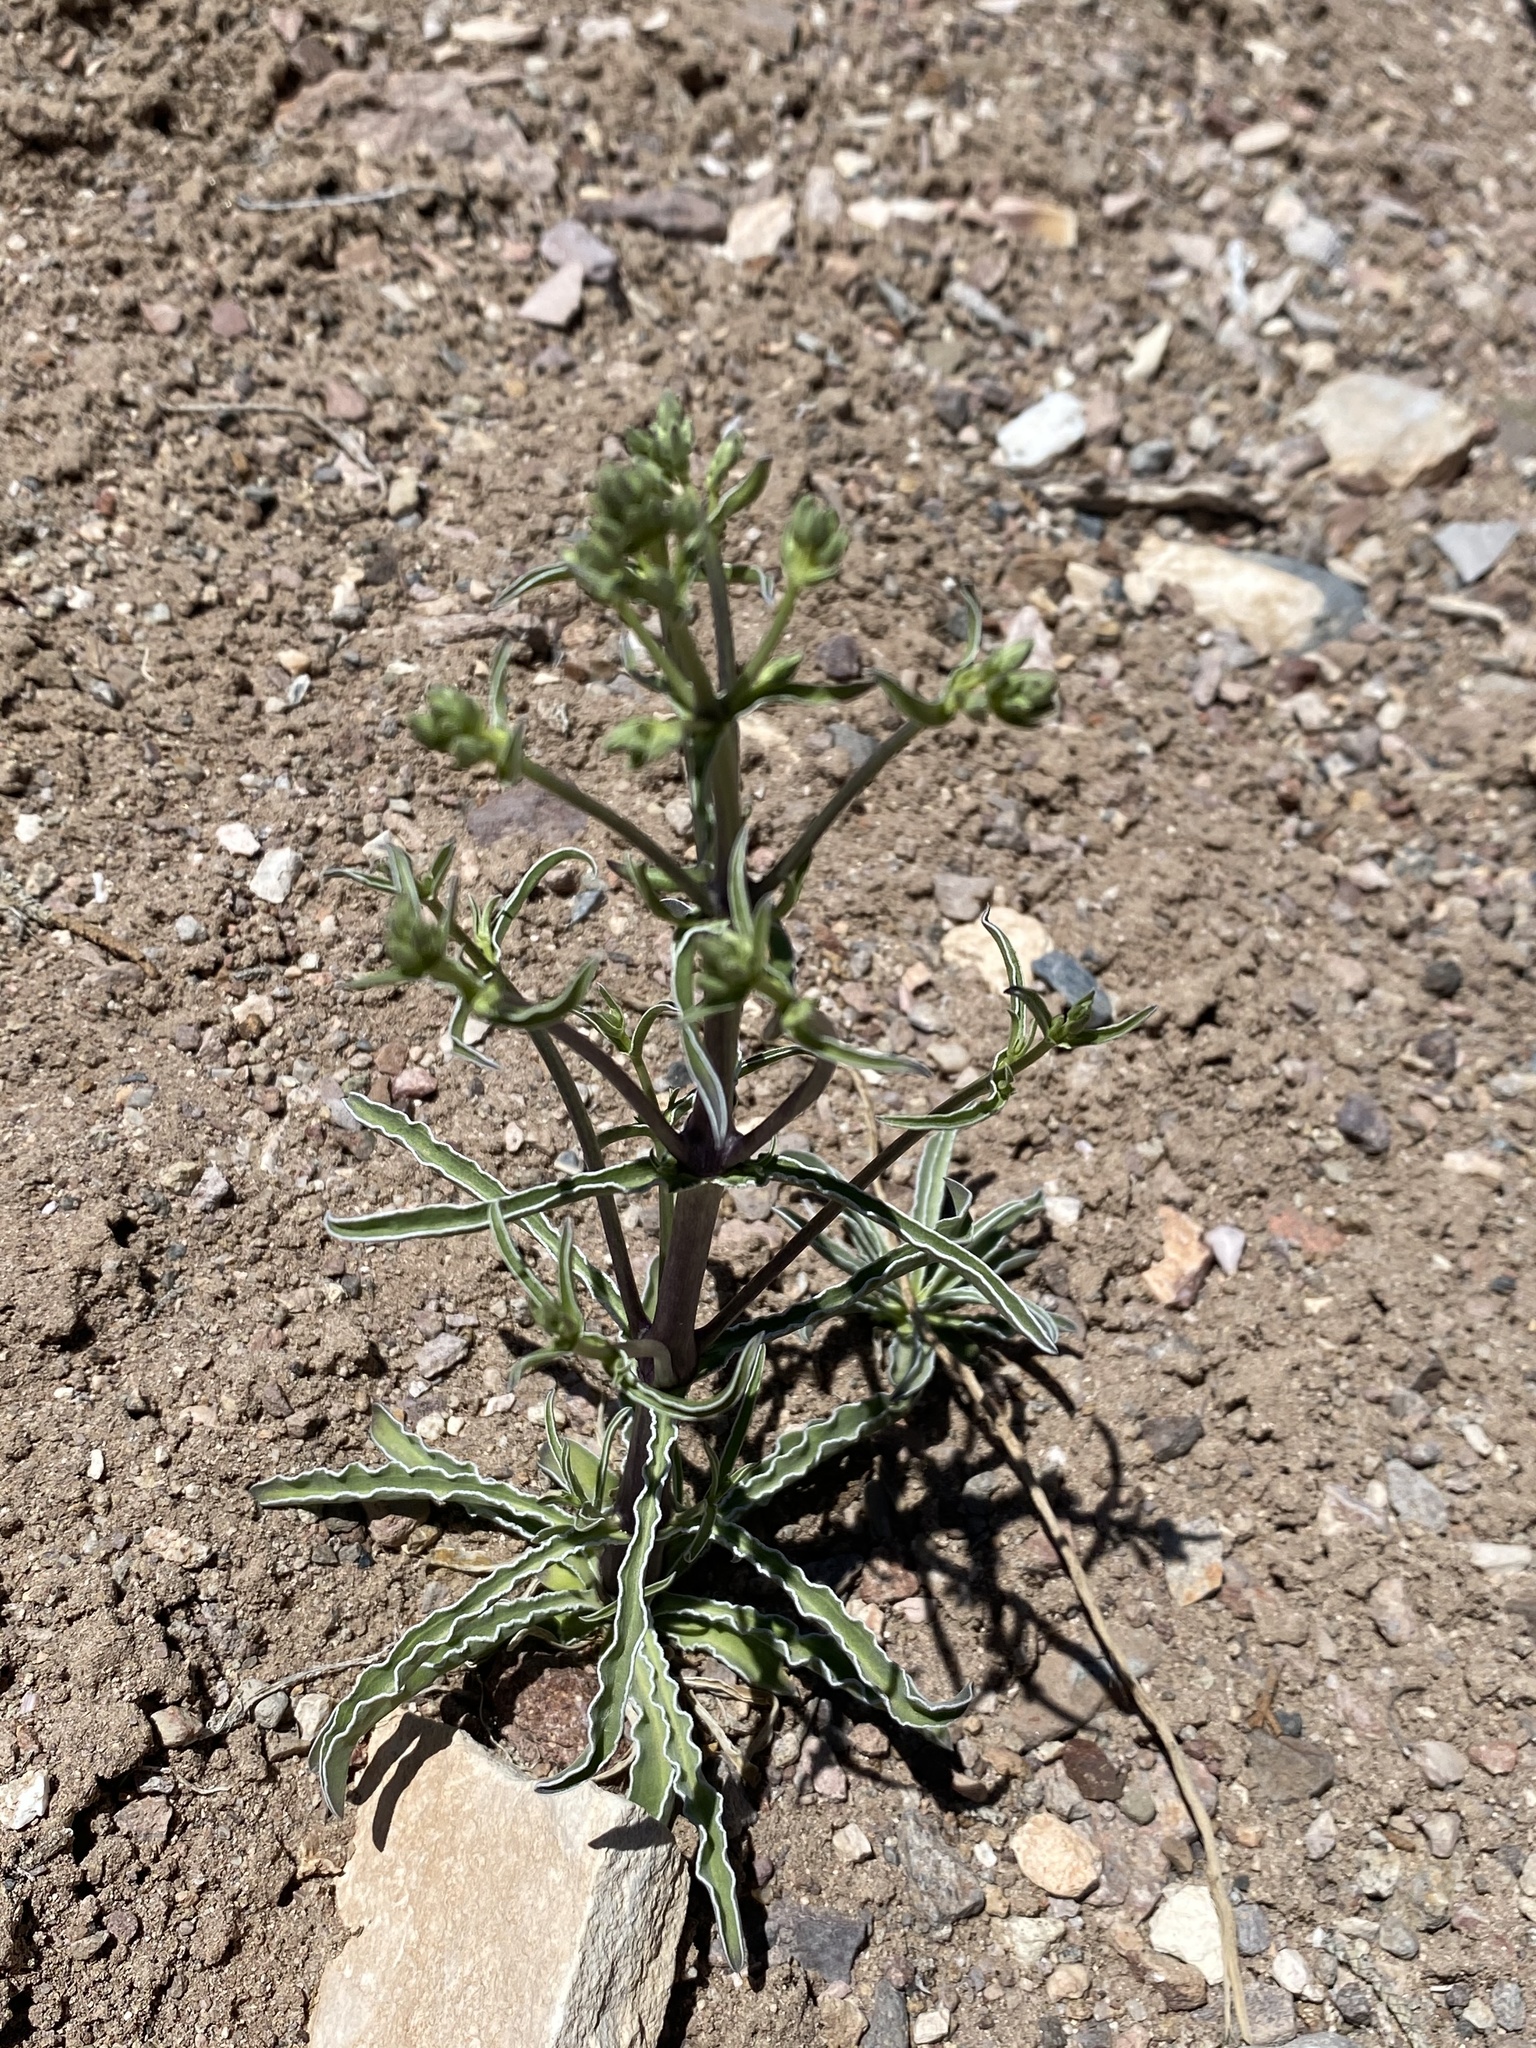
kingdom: Plantae
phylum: Tracheophyta
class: Magnoliopsida
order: Gentianales
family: Gentianaceae
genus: Frasera
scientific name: Frasera albomarginata
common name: Desert frasera
